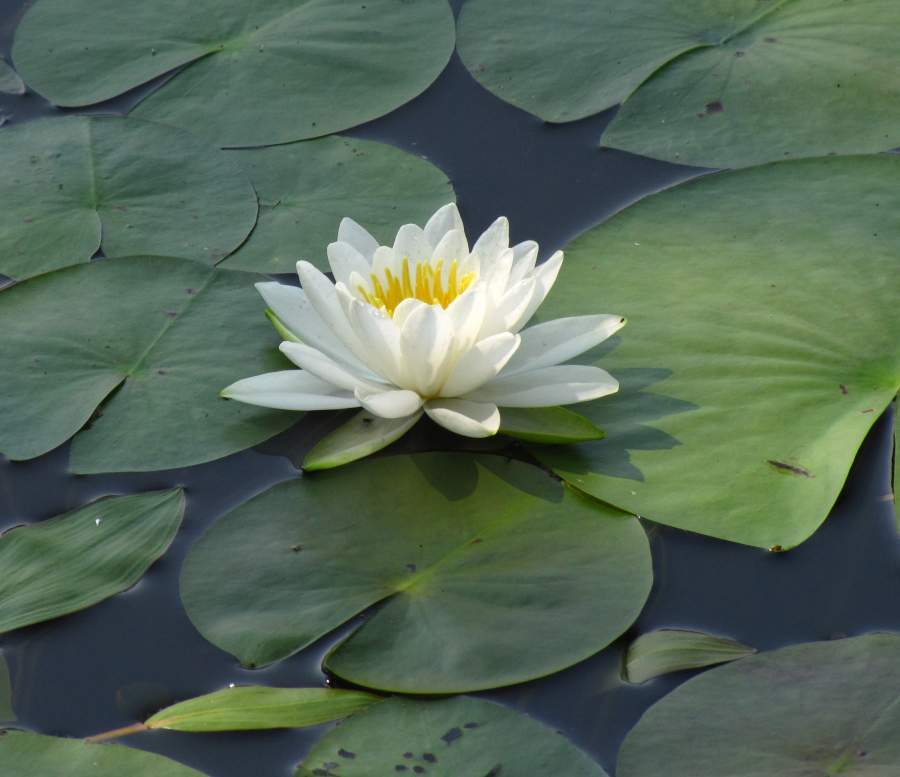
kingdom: Plantae
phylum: Tracheophyta
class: Magnoliopsida
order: Nymphaeales
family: Nymphaeaceae
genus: Nymphaea
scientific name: Nymphaea odorata
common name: Fragrant water-lily
